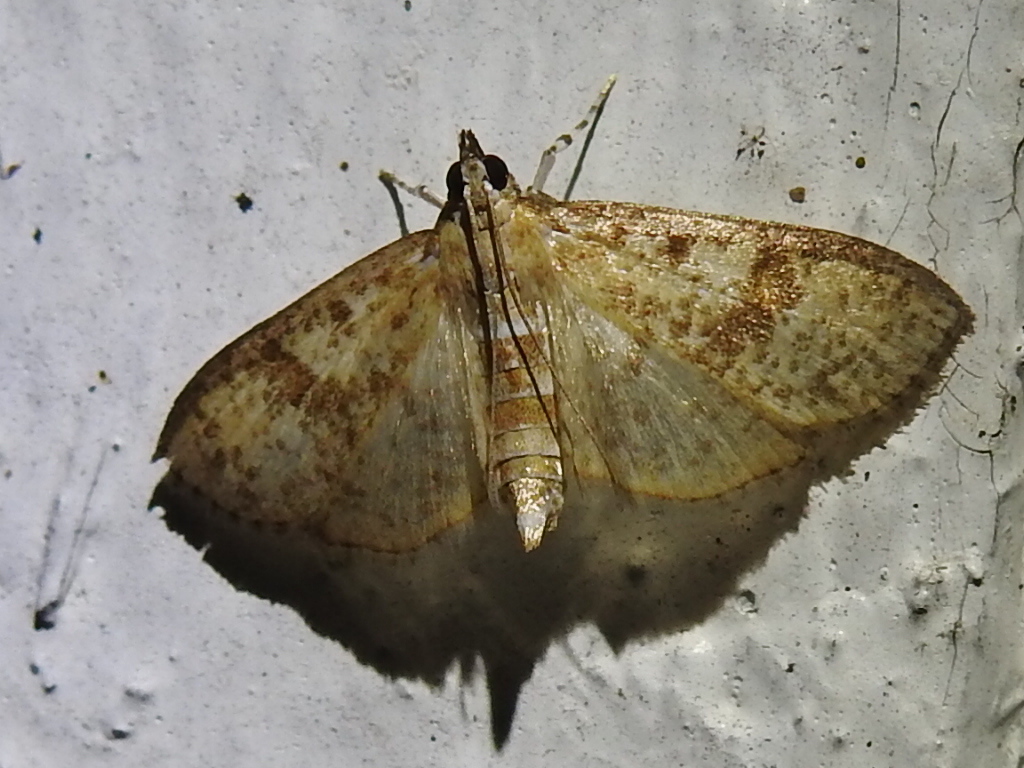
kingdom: Animalia
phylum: Arthropoda
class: Insecta
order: Lepidoptera
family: Crambidae
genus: Palpita
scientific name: Palpita freemanalis
